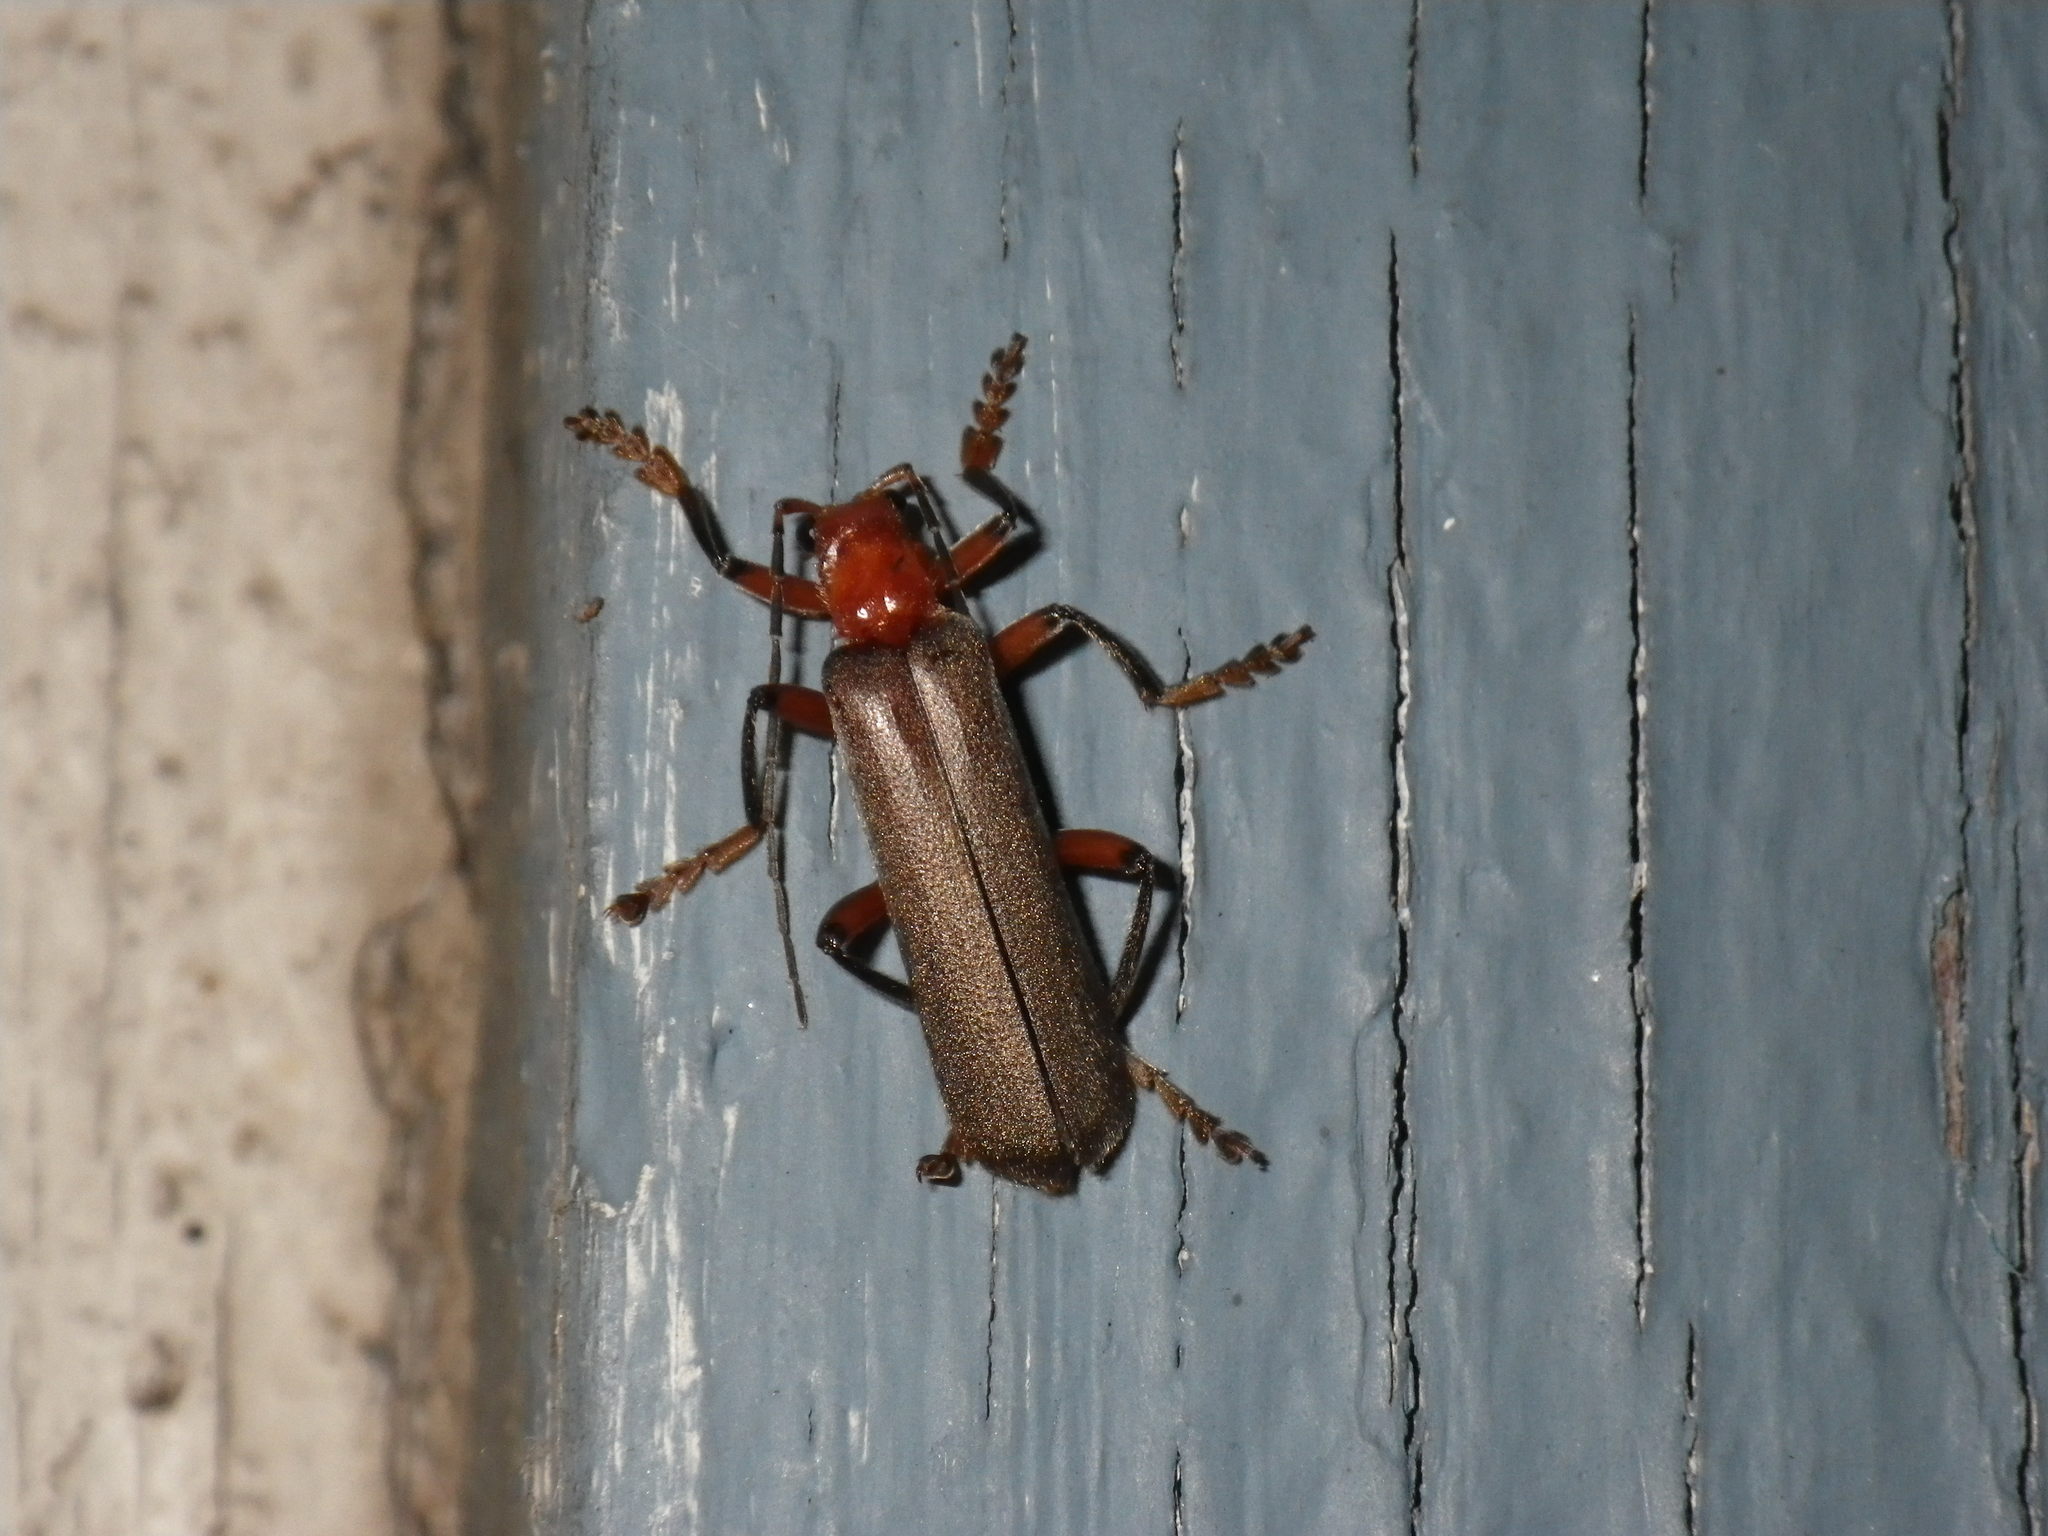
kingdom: Animalia
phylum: Arthropoda
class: Insecta
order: Coleoptera
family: Cantharidae
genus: Pacificanthia
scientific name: Pacificanthia consors
